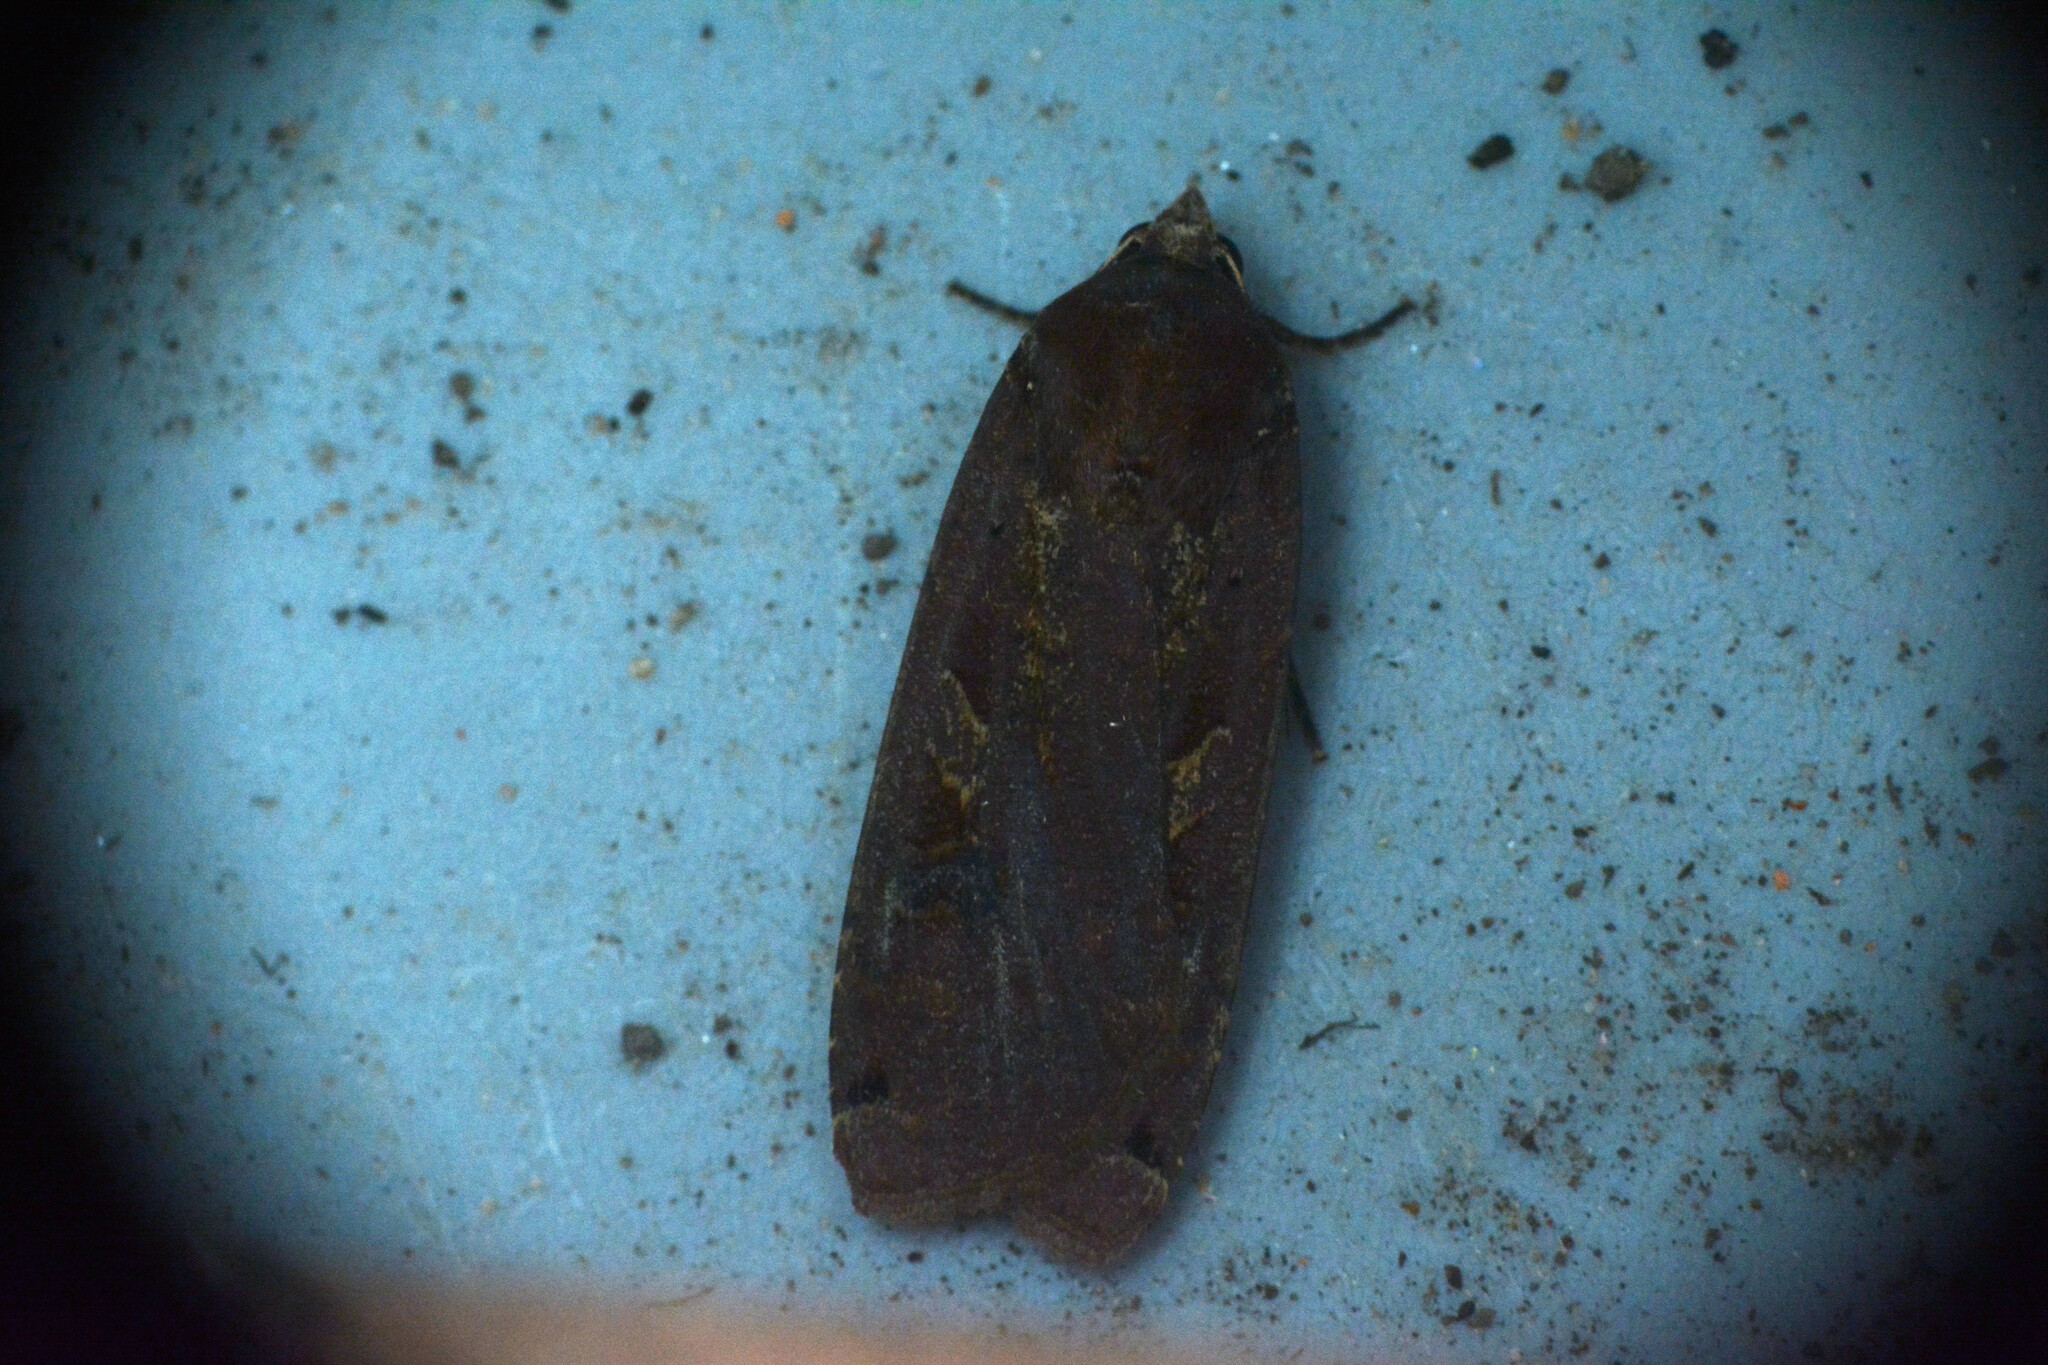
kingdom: Animalia
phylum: Arthropoda
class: Insecta
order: Lepidoptera
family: Noctuidae
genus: Noctua
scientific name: Noctua pronuba
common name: Large yellow underwing
